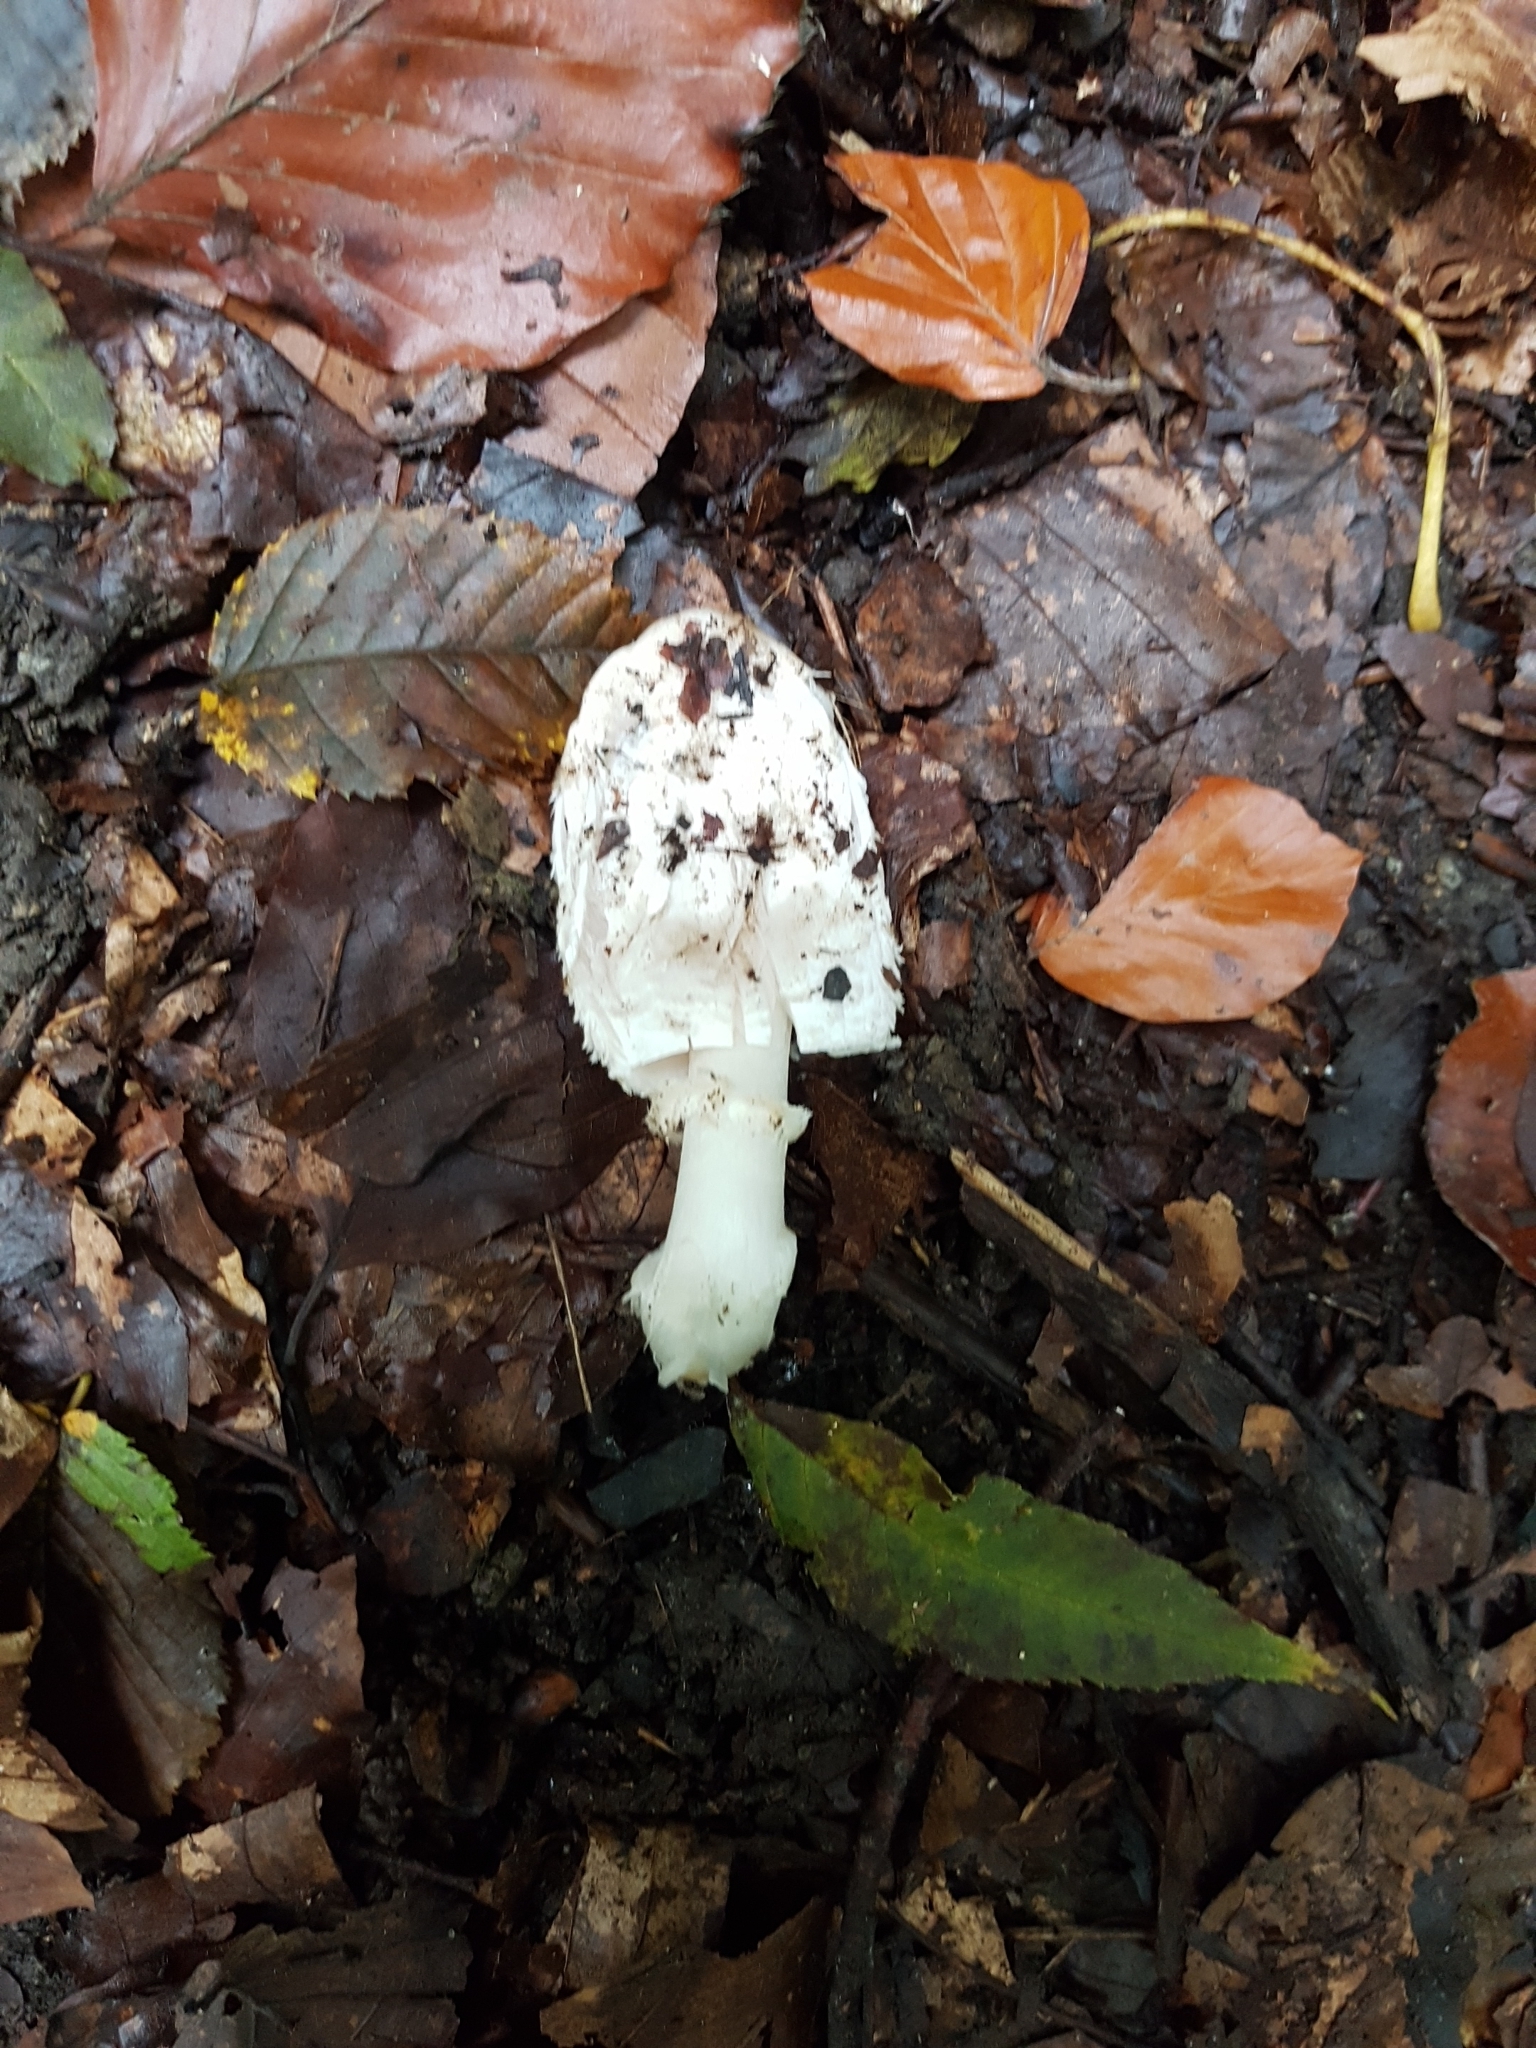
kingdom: Fungi
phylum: Basidiomycota
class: Agaricomycetes
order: Agaricales
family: Agaricaceae
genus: Coprinus
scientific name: Coprinus comatus
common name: Lawyer's wig
